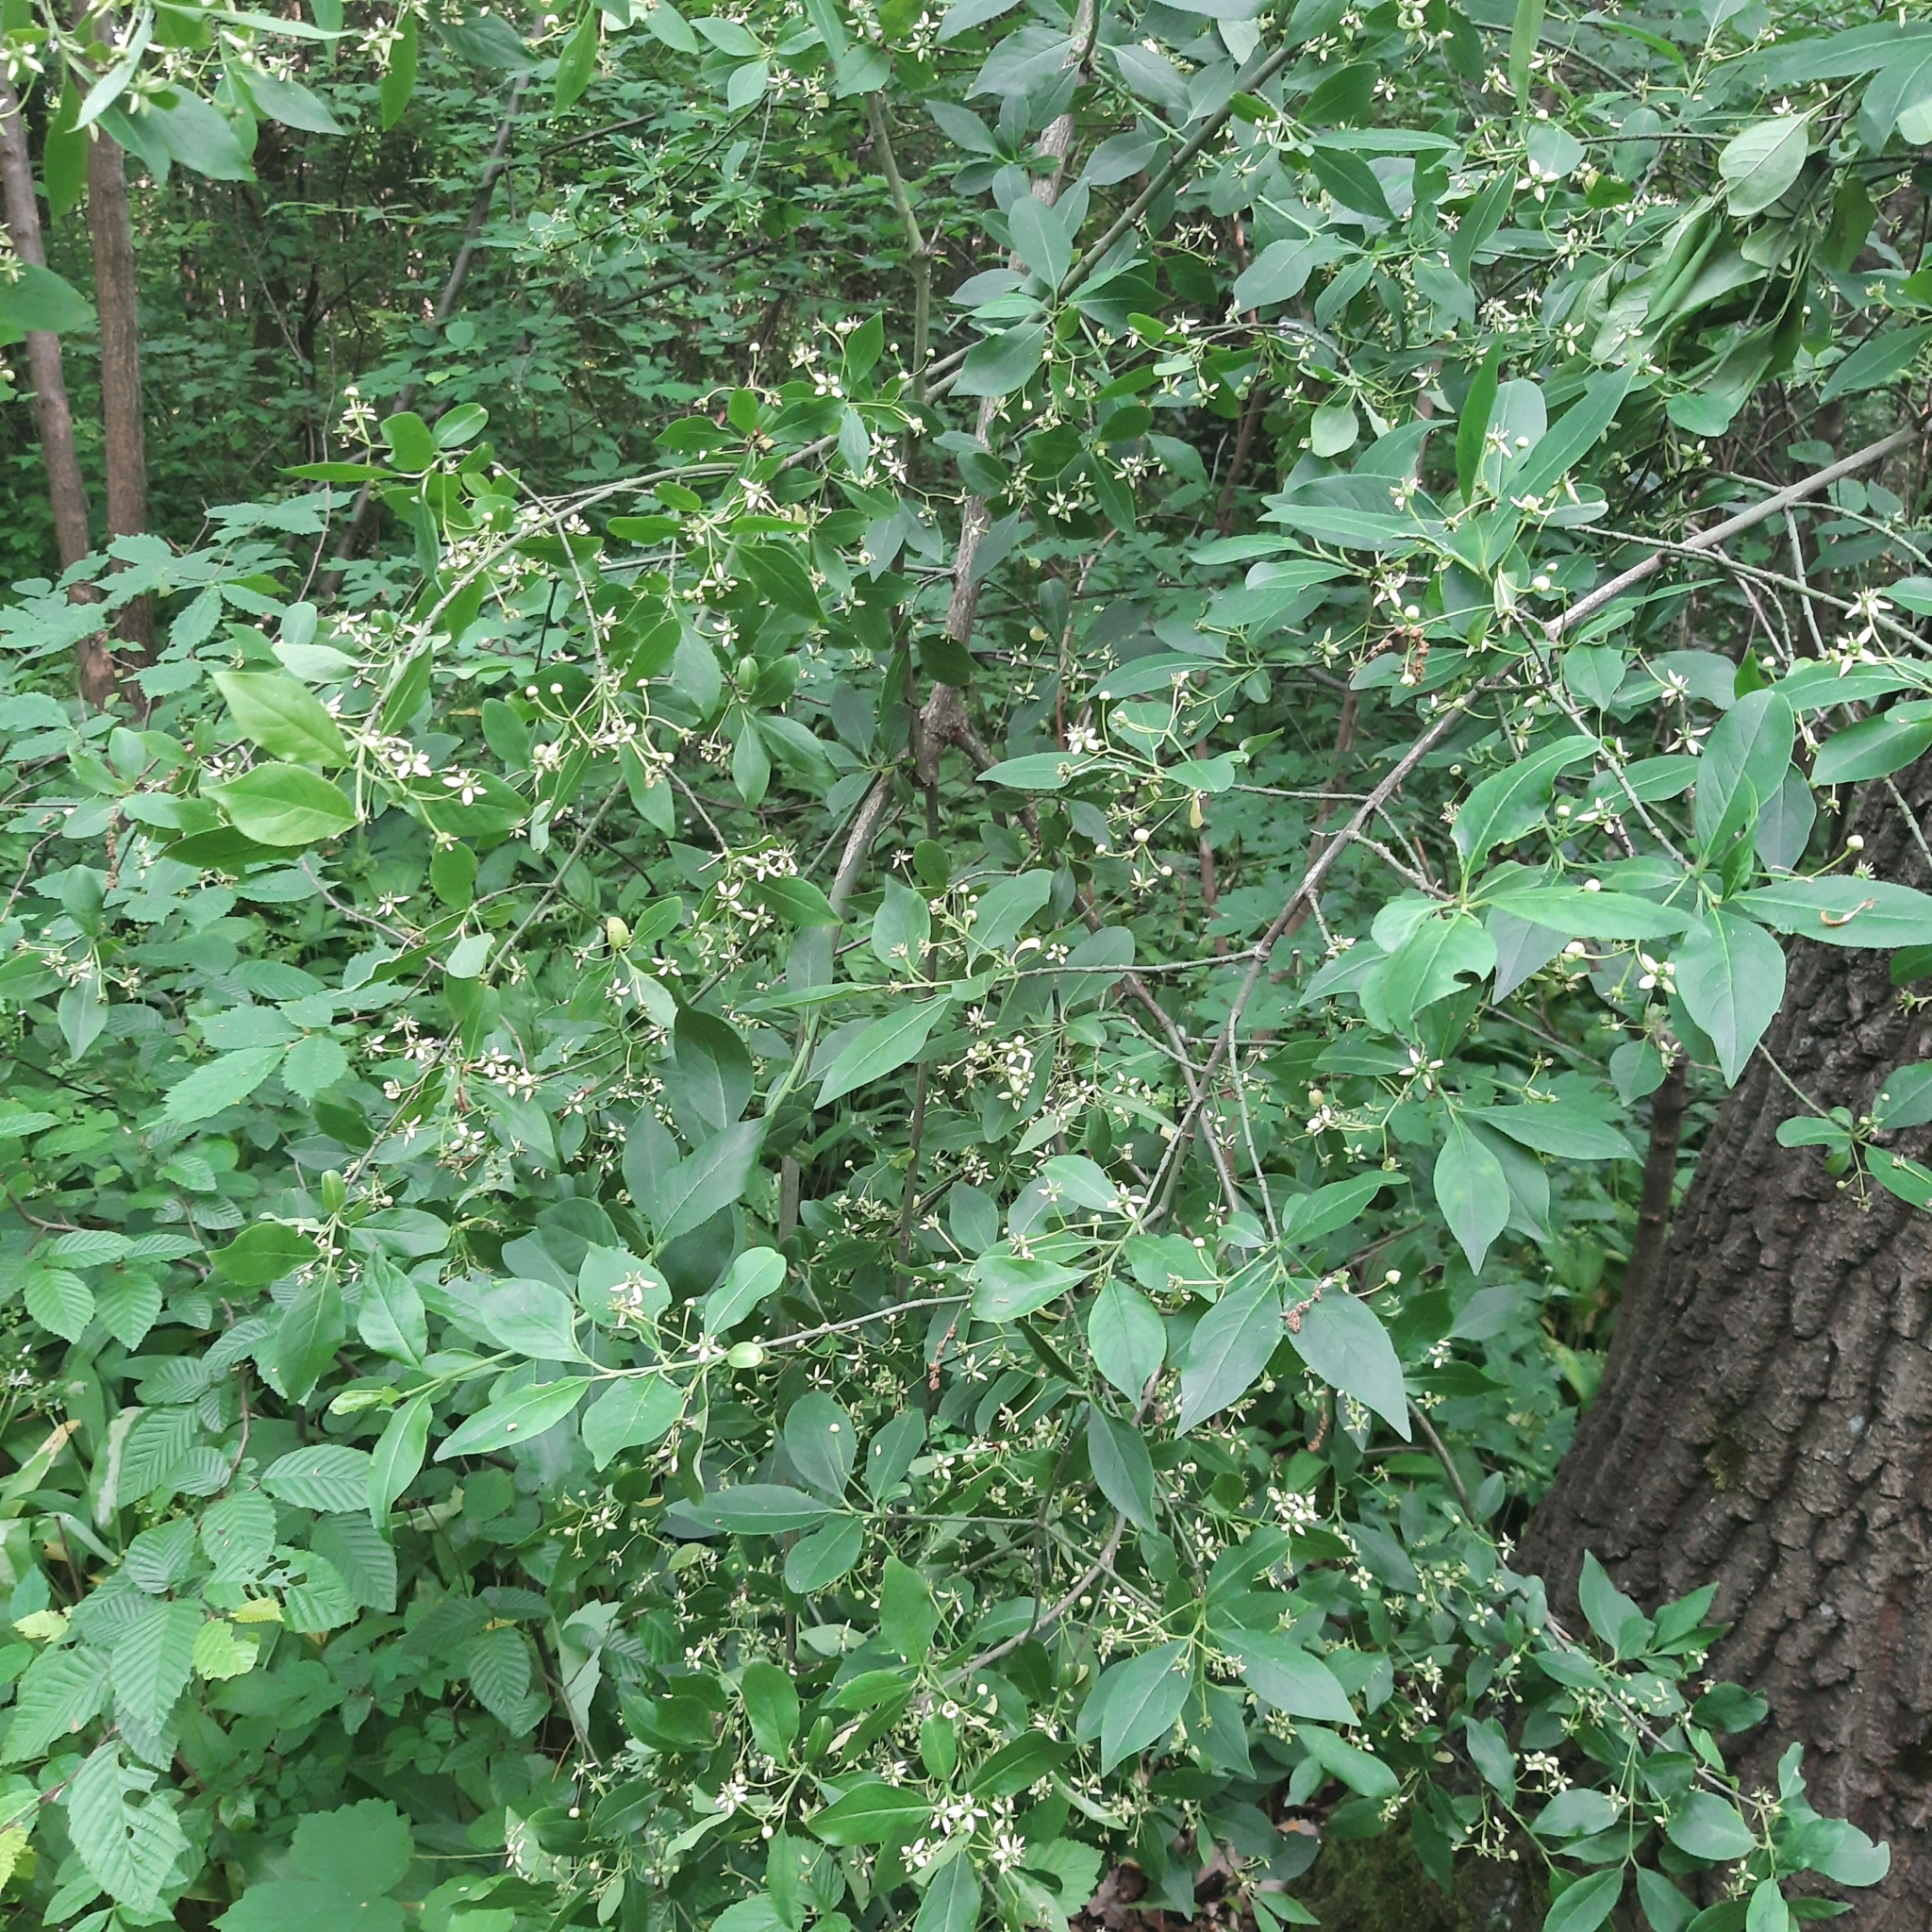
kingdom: Plantae
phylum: Tracheophyta
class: Magnoliopsida
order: Celastrales
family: Celastraceae
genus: Euonymus
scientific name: Euonymus europaeus
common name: Spindle
